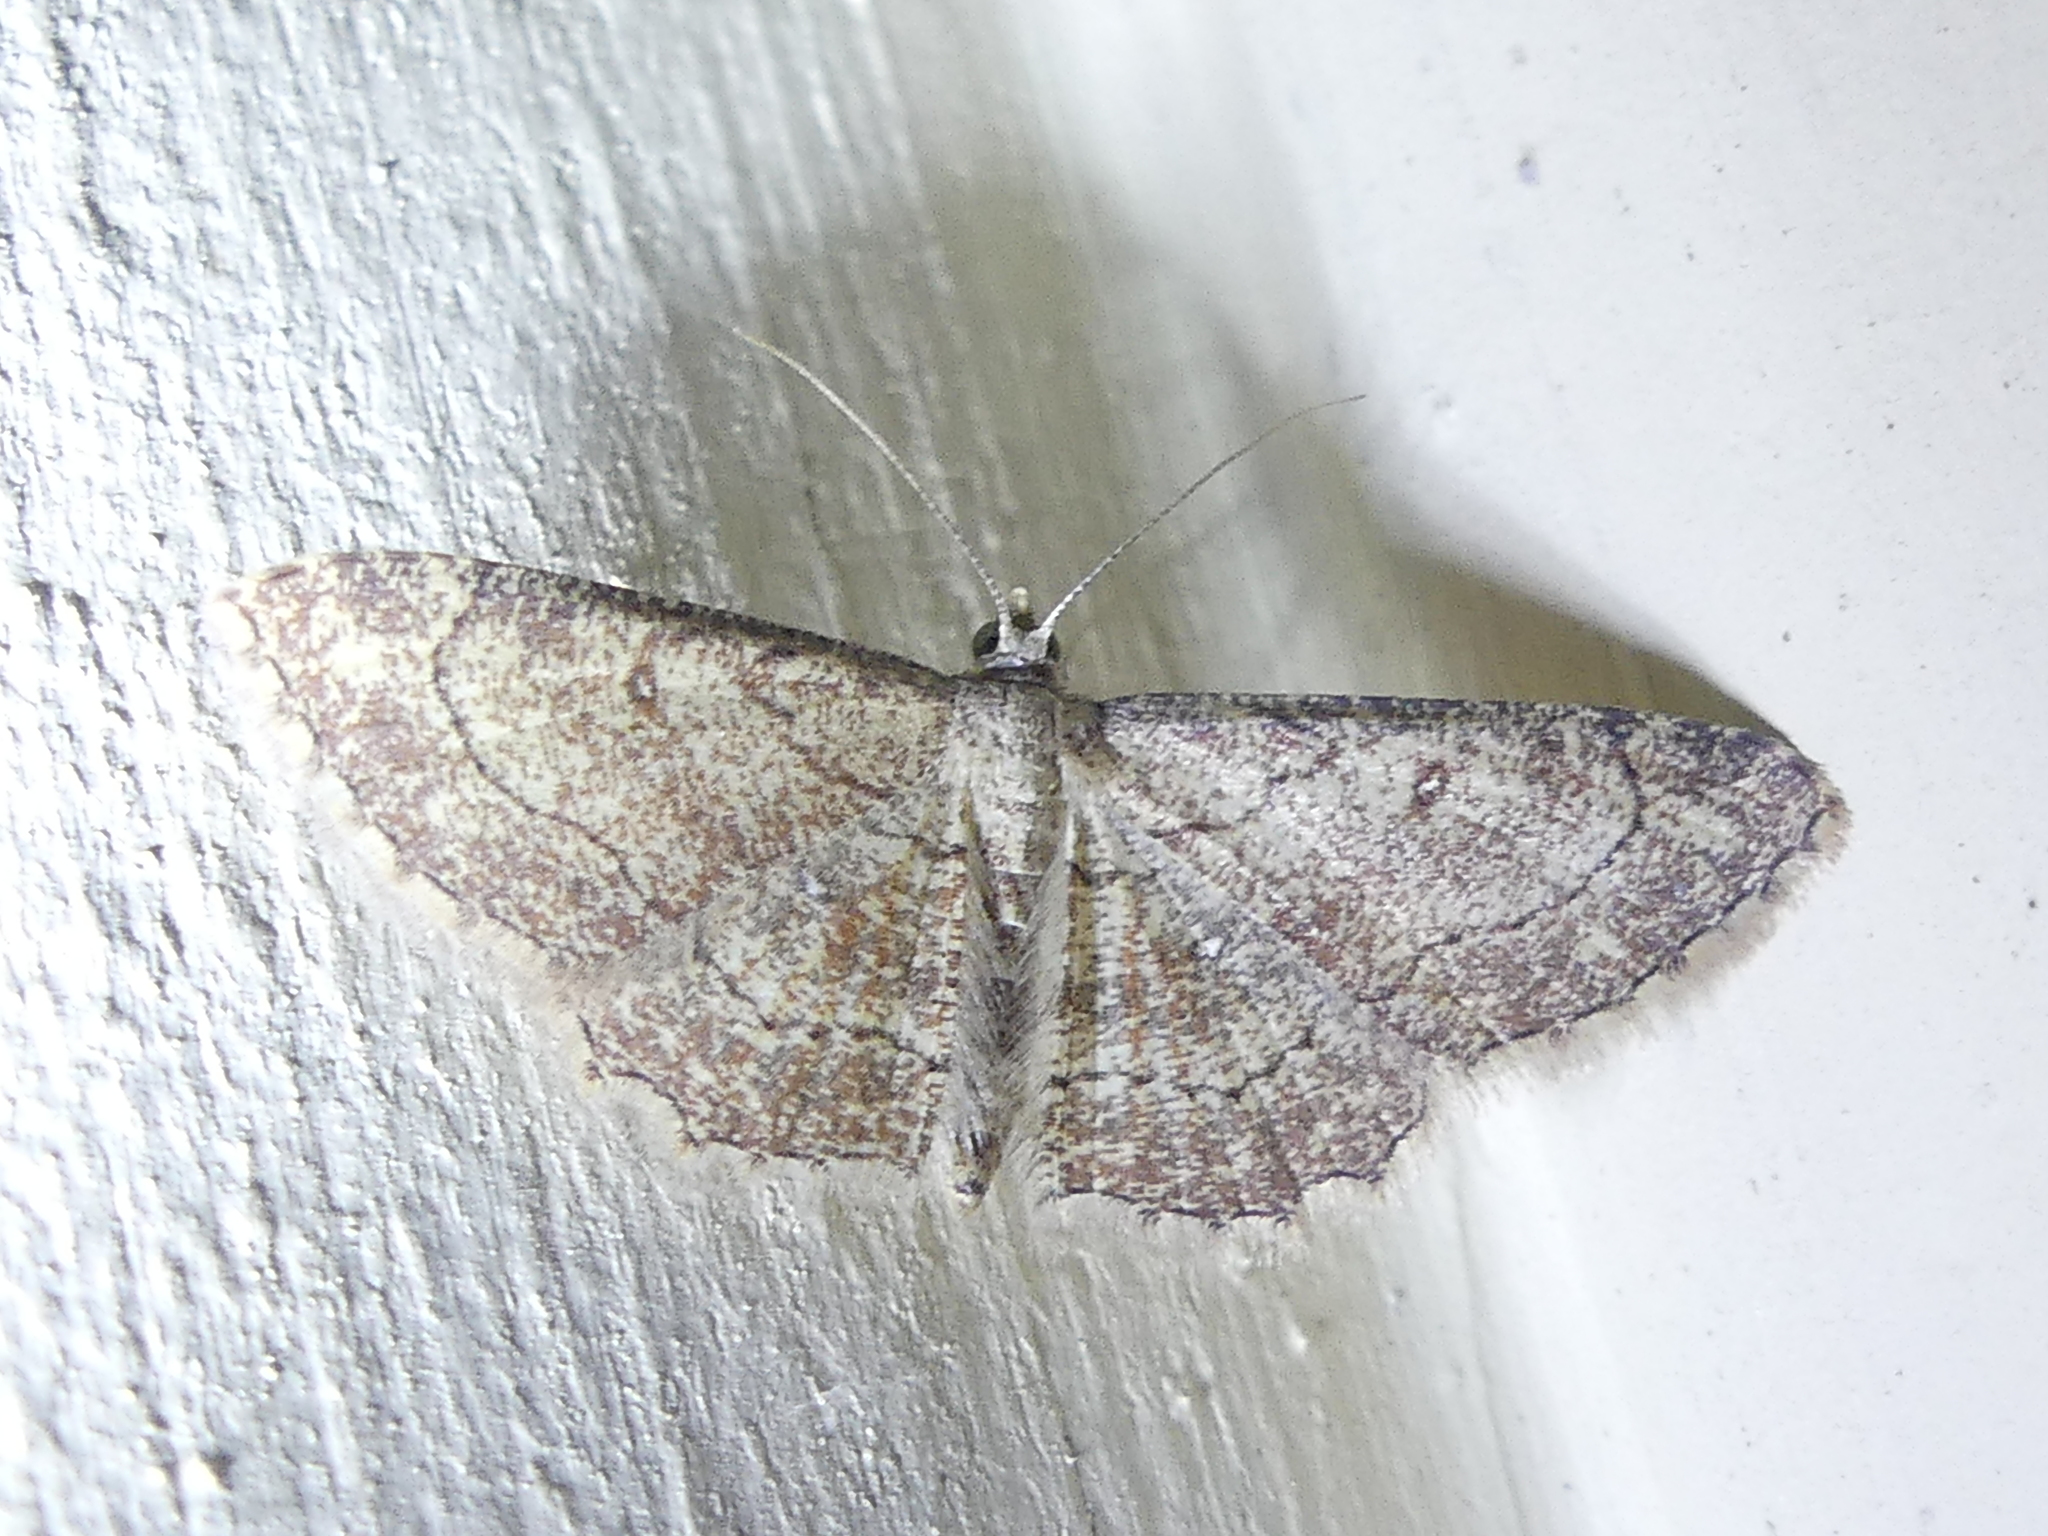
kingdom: Animalia
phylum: Arthropoda
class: Insecta
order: Lepidoptera
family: Geometridae
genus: Cyclophora
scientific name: Cyclophora nanaria
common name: Cankerworm
